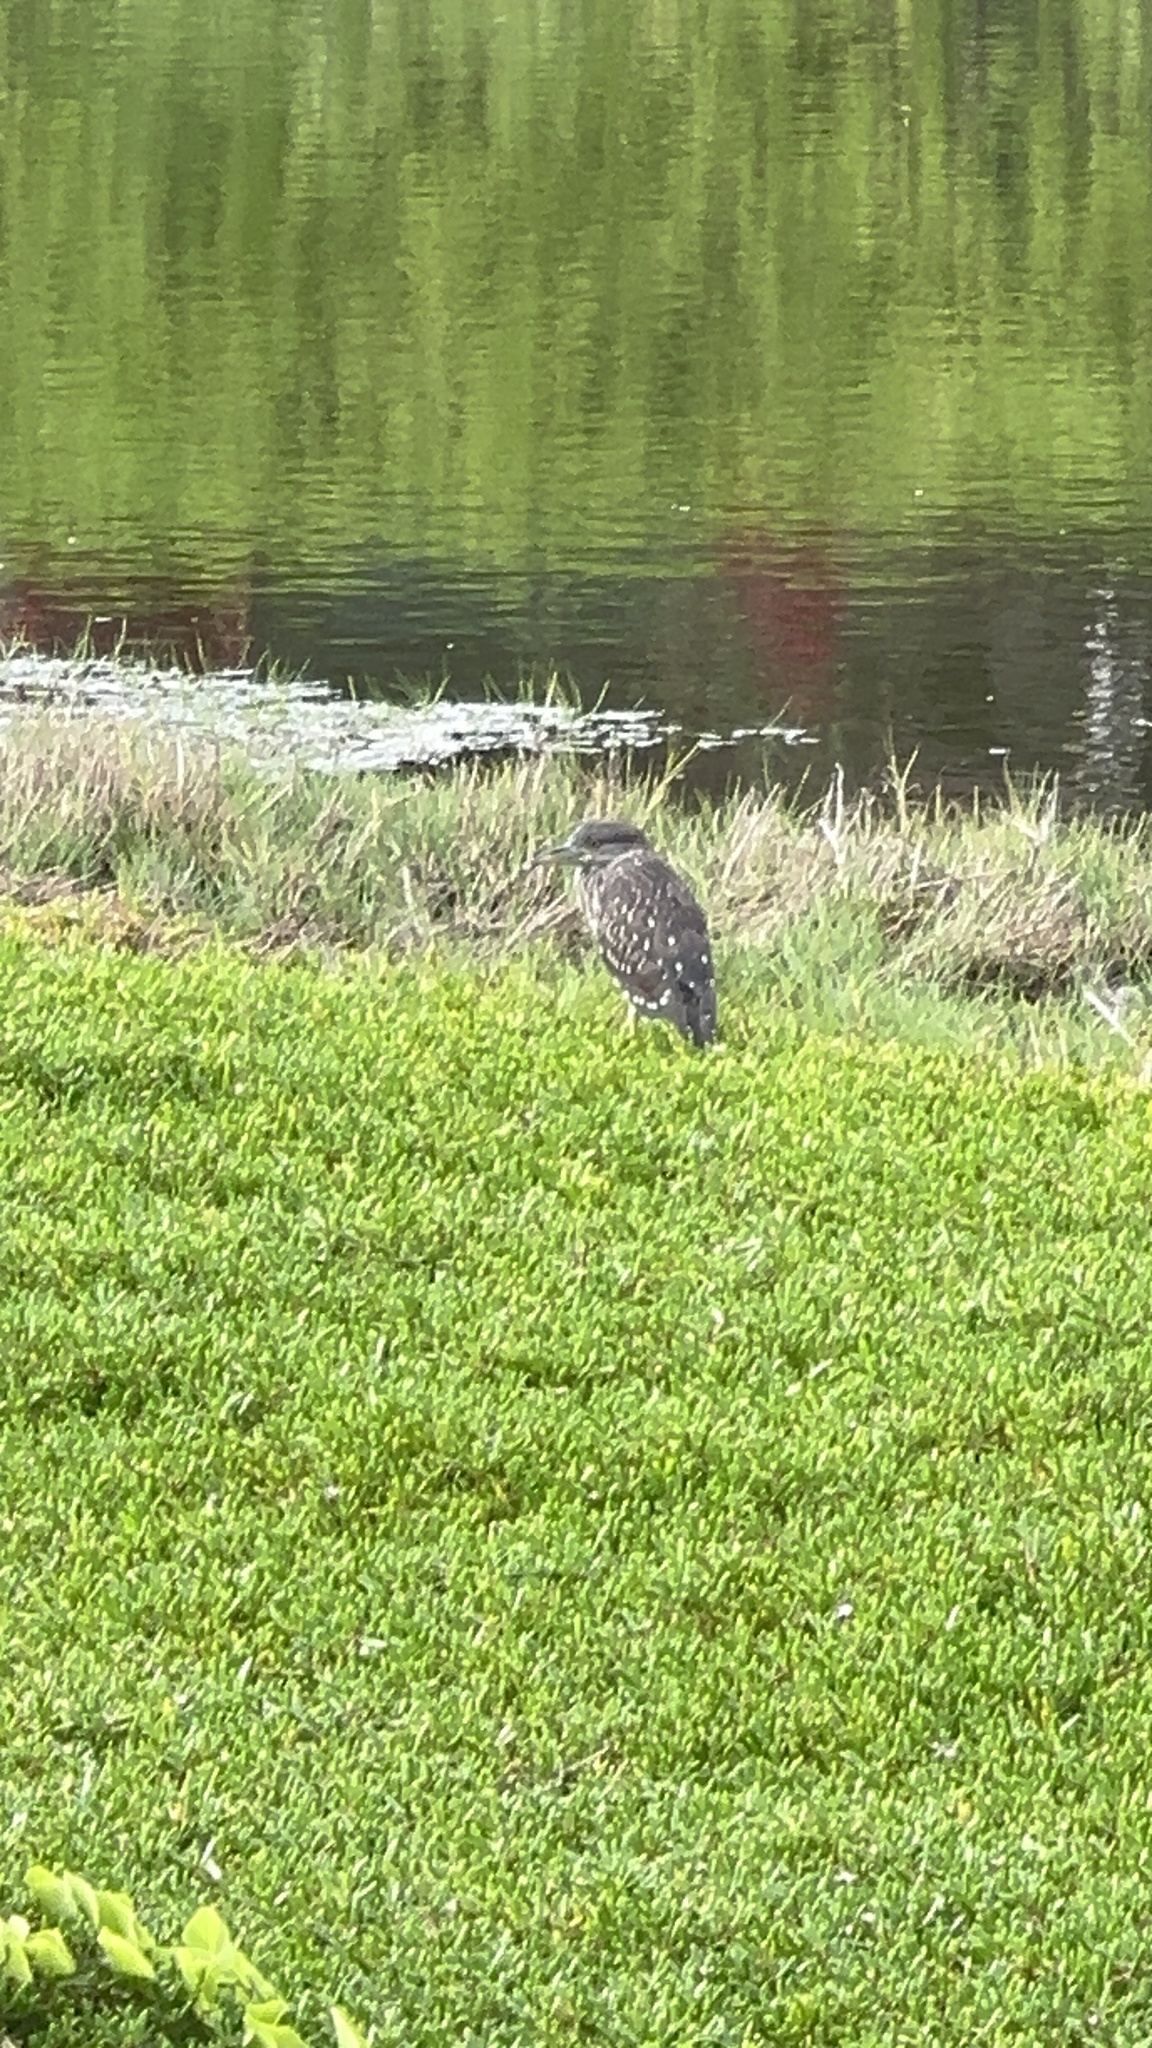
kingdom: Animalia
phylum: Chordata
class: Aves
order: Pelecaniformes
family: Ardeidae
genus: Nycticorax
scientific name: Nycticorax nycticorax
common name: Black-crowned night heron
